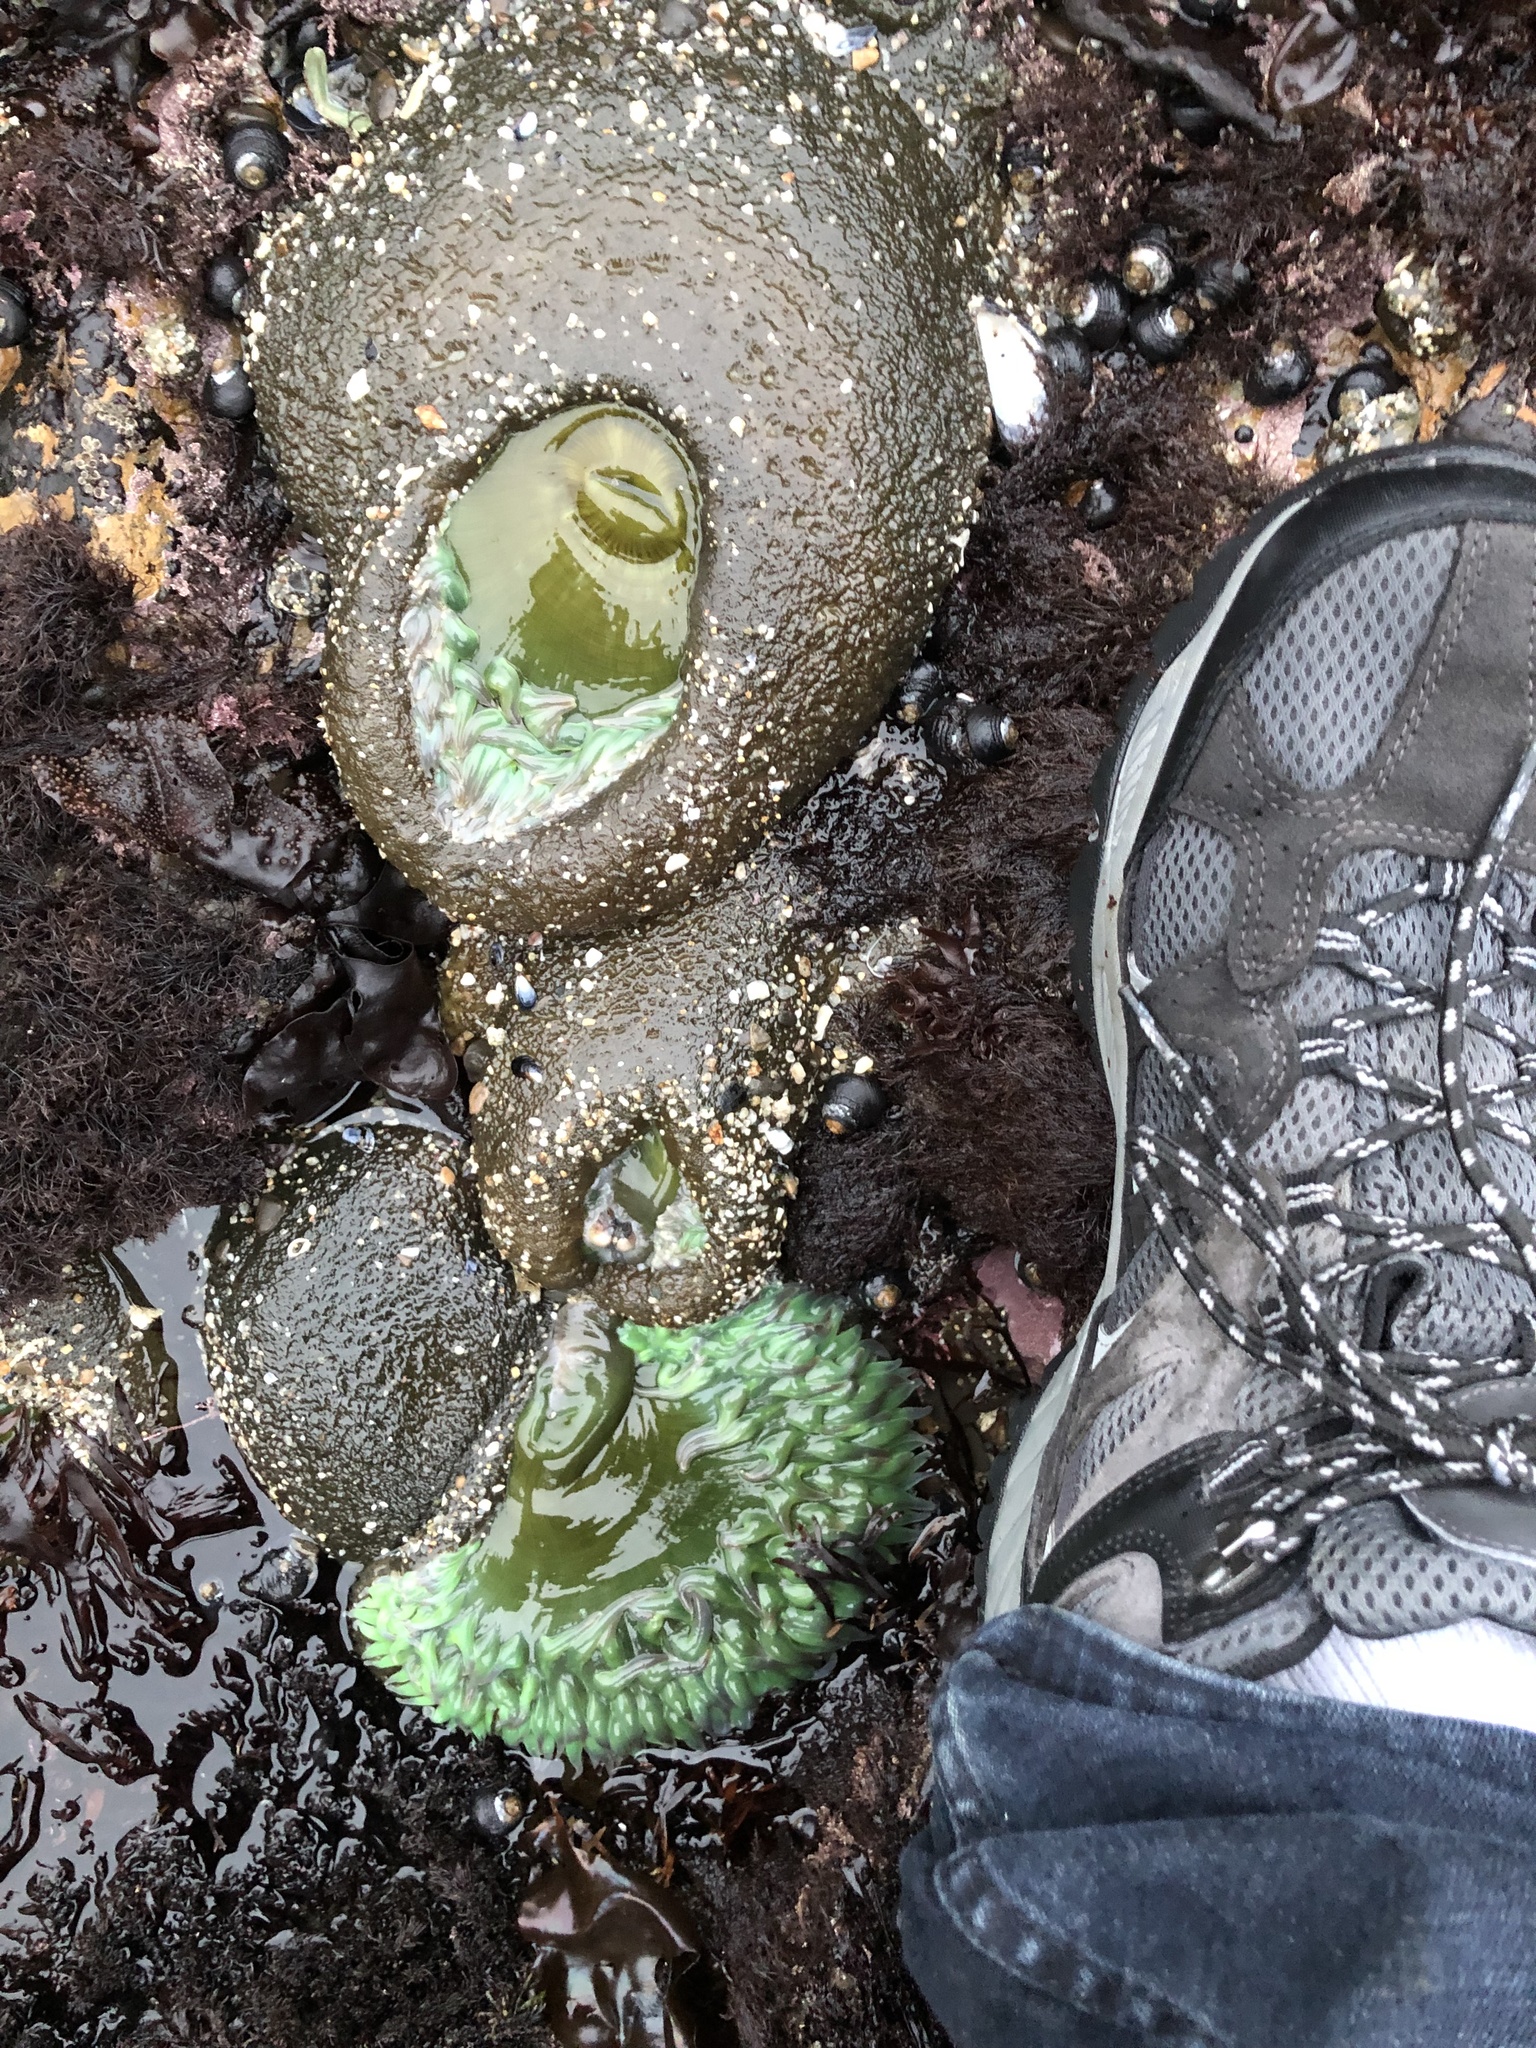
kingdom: Animalia
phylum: Cnidaria
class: Anthozoa
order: Actiniaria
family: Actiniidae
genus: Anthopleura
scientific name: Anthopleura xanthogrammica
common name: Giant green anemone
